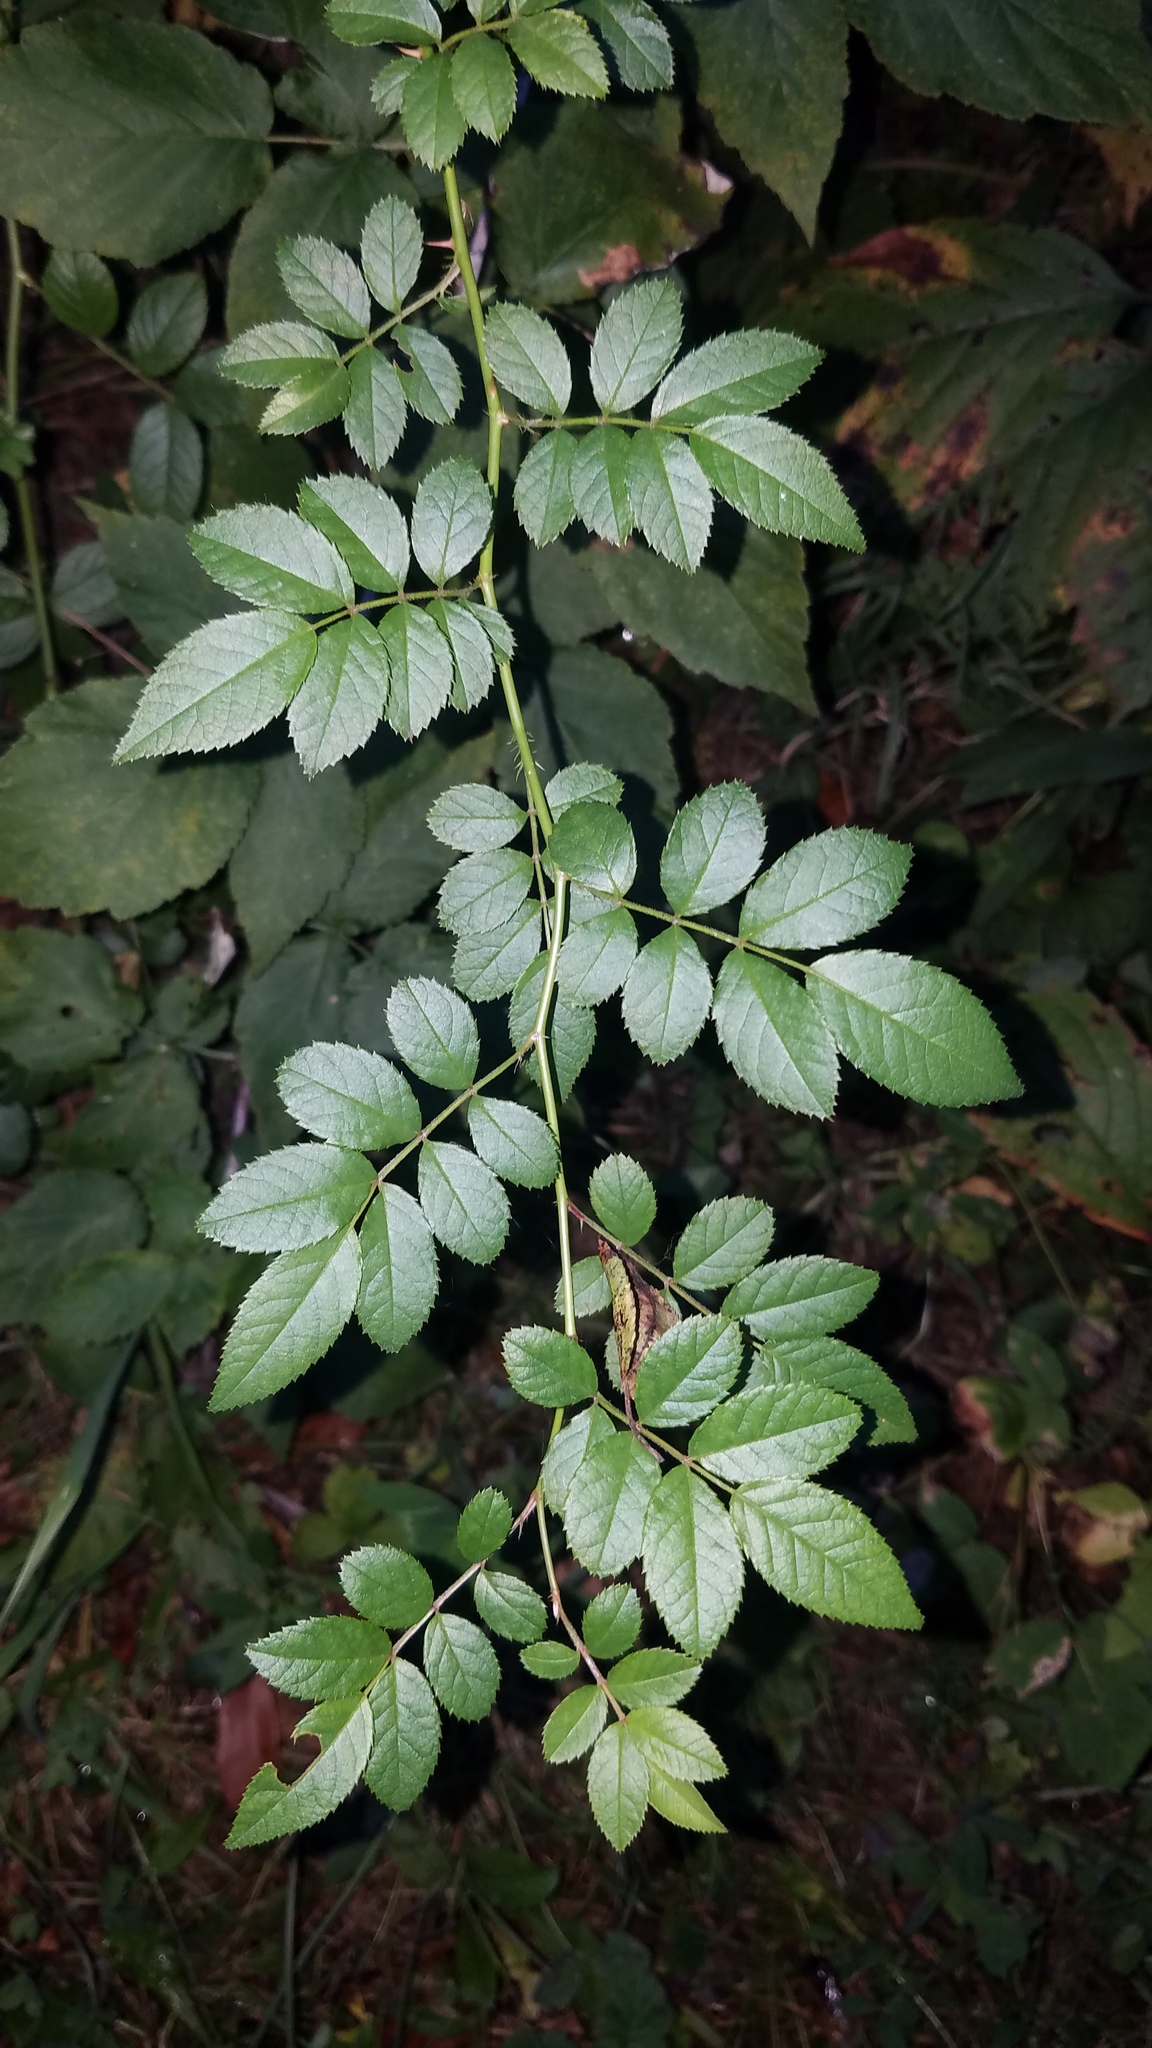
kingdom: Plantae
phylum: Tracheophyta
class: Magnoliopsida
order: Rosales
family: Rosaceae
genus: Rosa
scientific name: Rosa multiflora
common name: Multiflora rose
